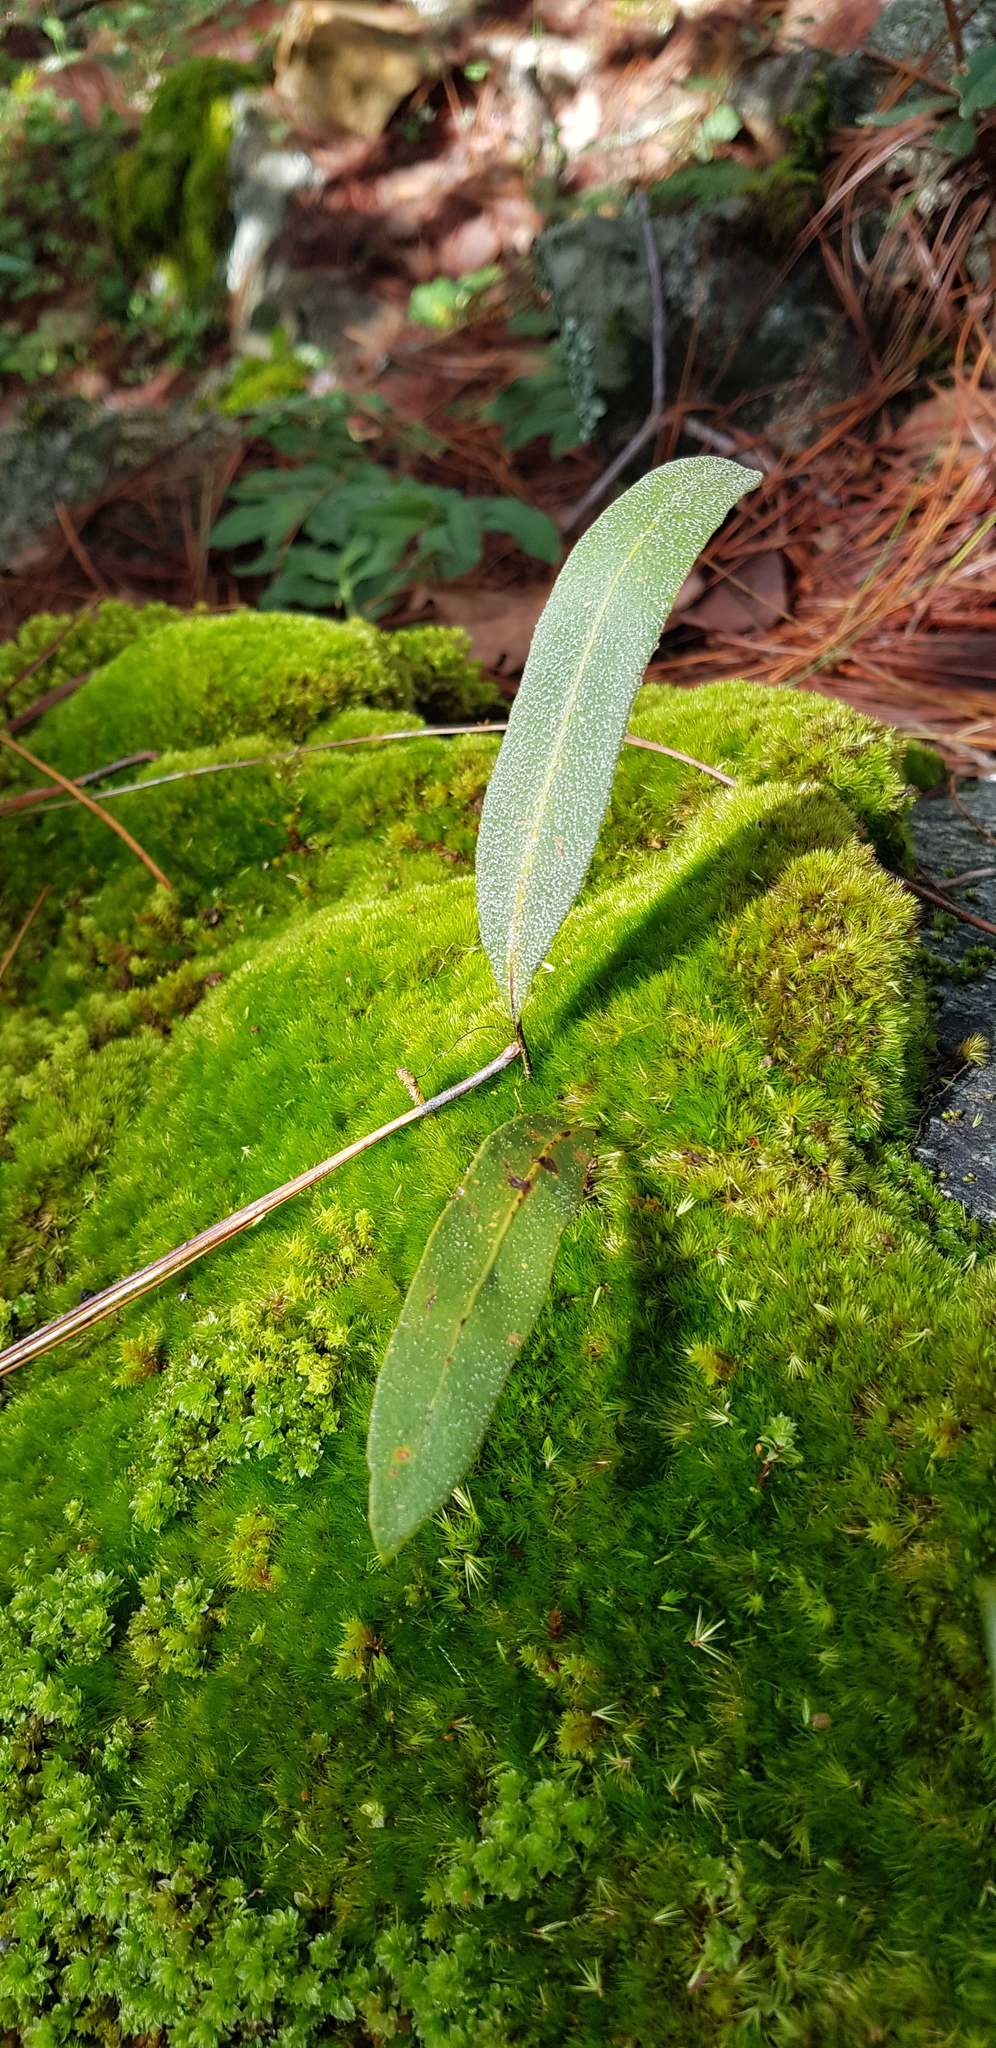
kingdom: Plantae
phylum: Tracheophyta
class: Polypodiopsida
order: Polypodiales
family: Polypodiaceae
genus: Pleopeltis
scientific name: Pleopeltis conzattii
